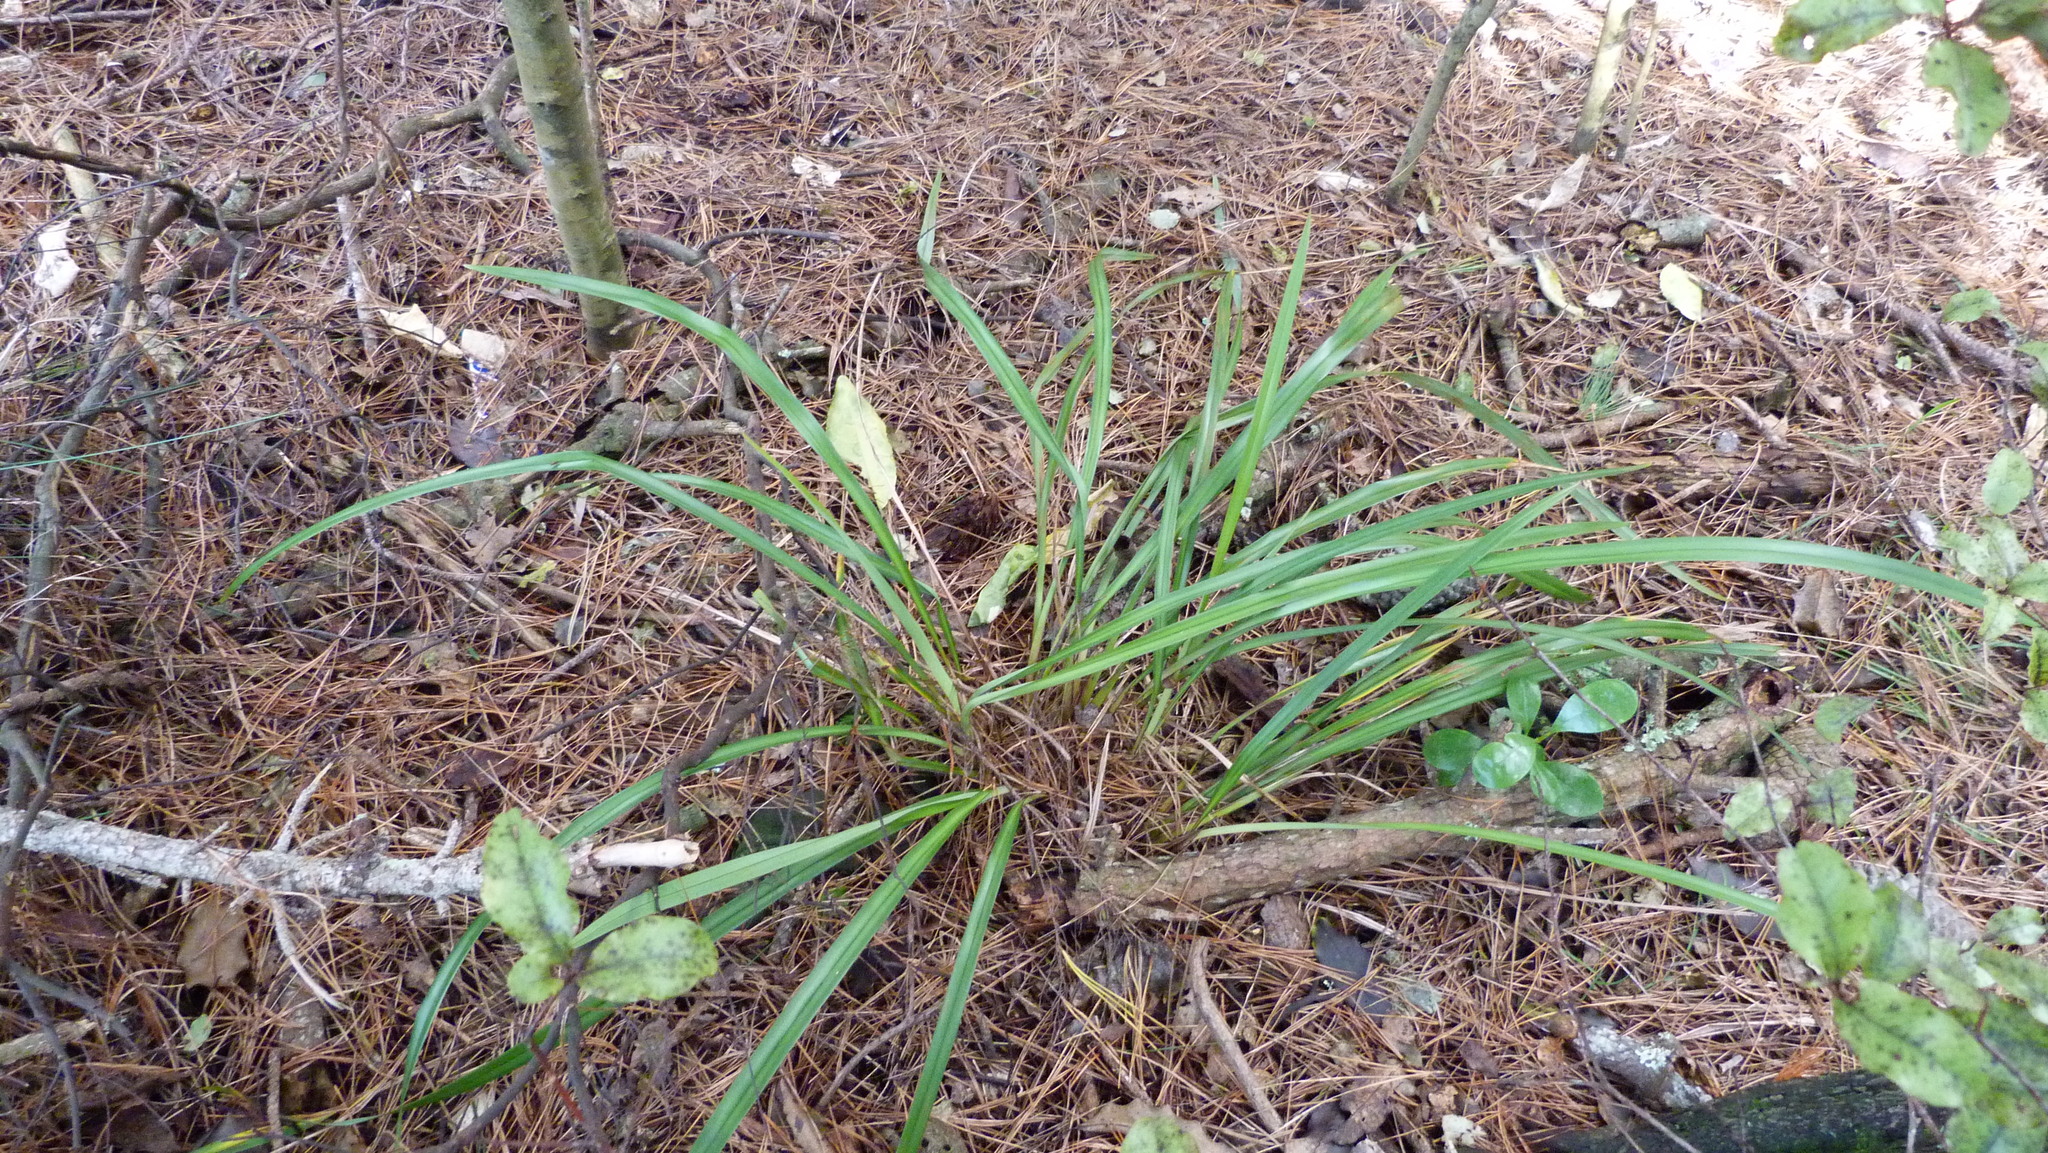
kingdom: Plantae
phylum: Tracheophyta
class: Liliopsida
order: Asparagales
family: Asphodelaceae
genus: Dianella
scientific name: Dianella nigra
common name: New zealand-blueberry
